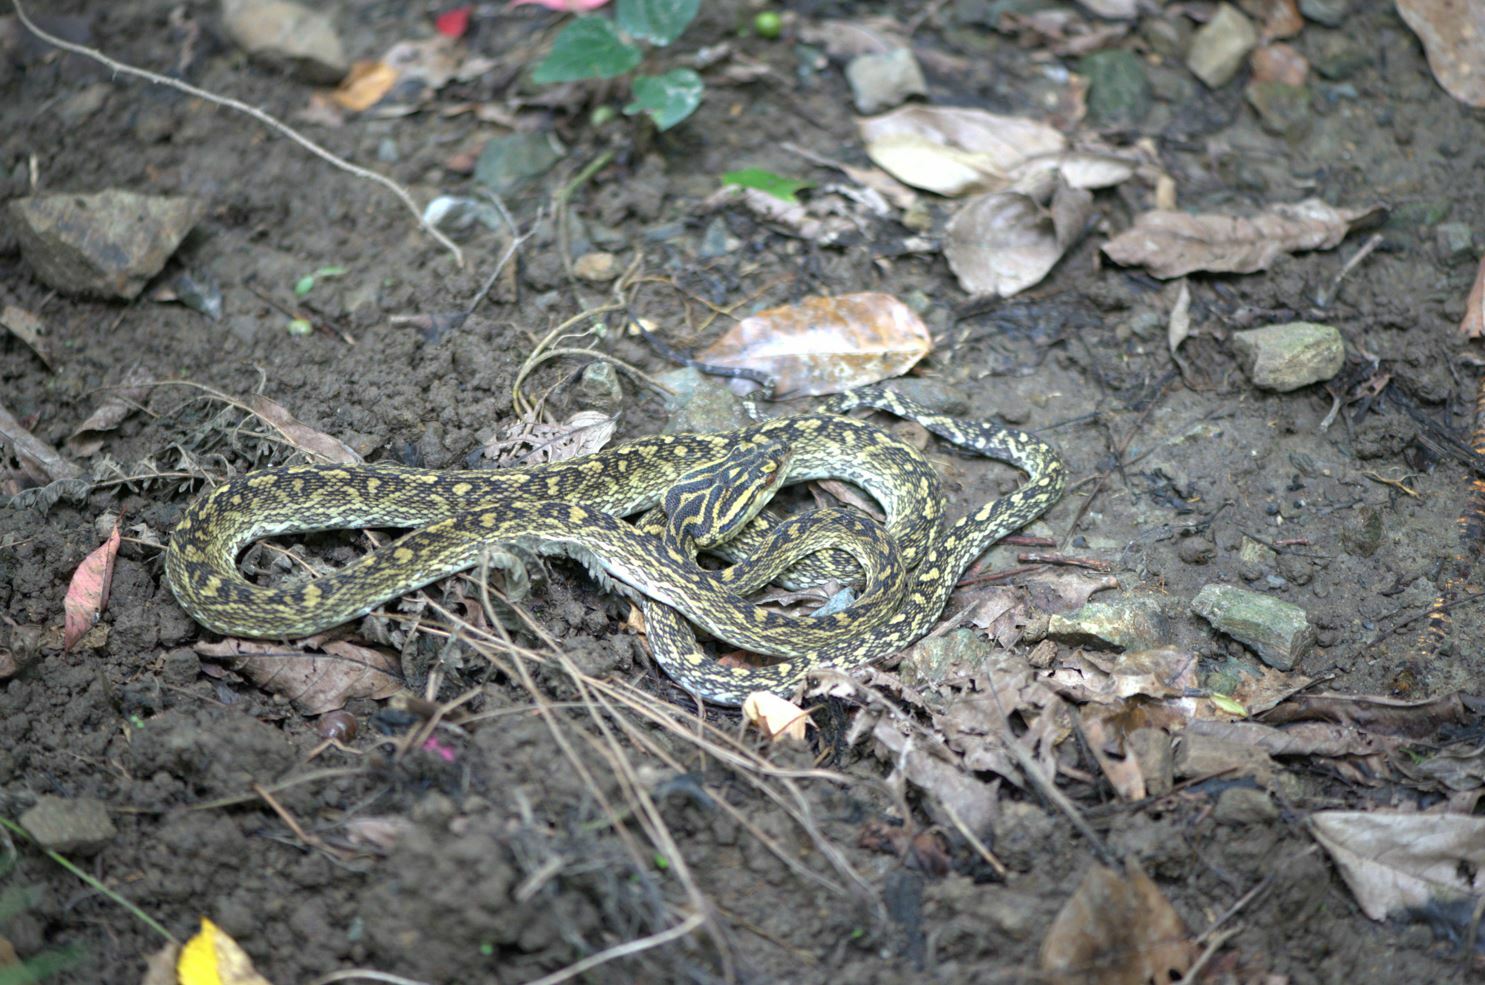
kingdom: Animalia
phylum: Chordata
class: Squamata
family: Viperidae
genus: Protobothrops
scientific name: Protobothrops flavoviridis
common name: Habu
